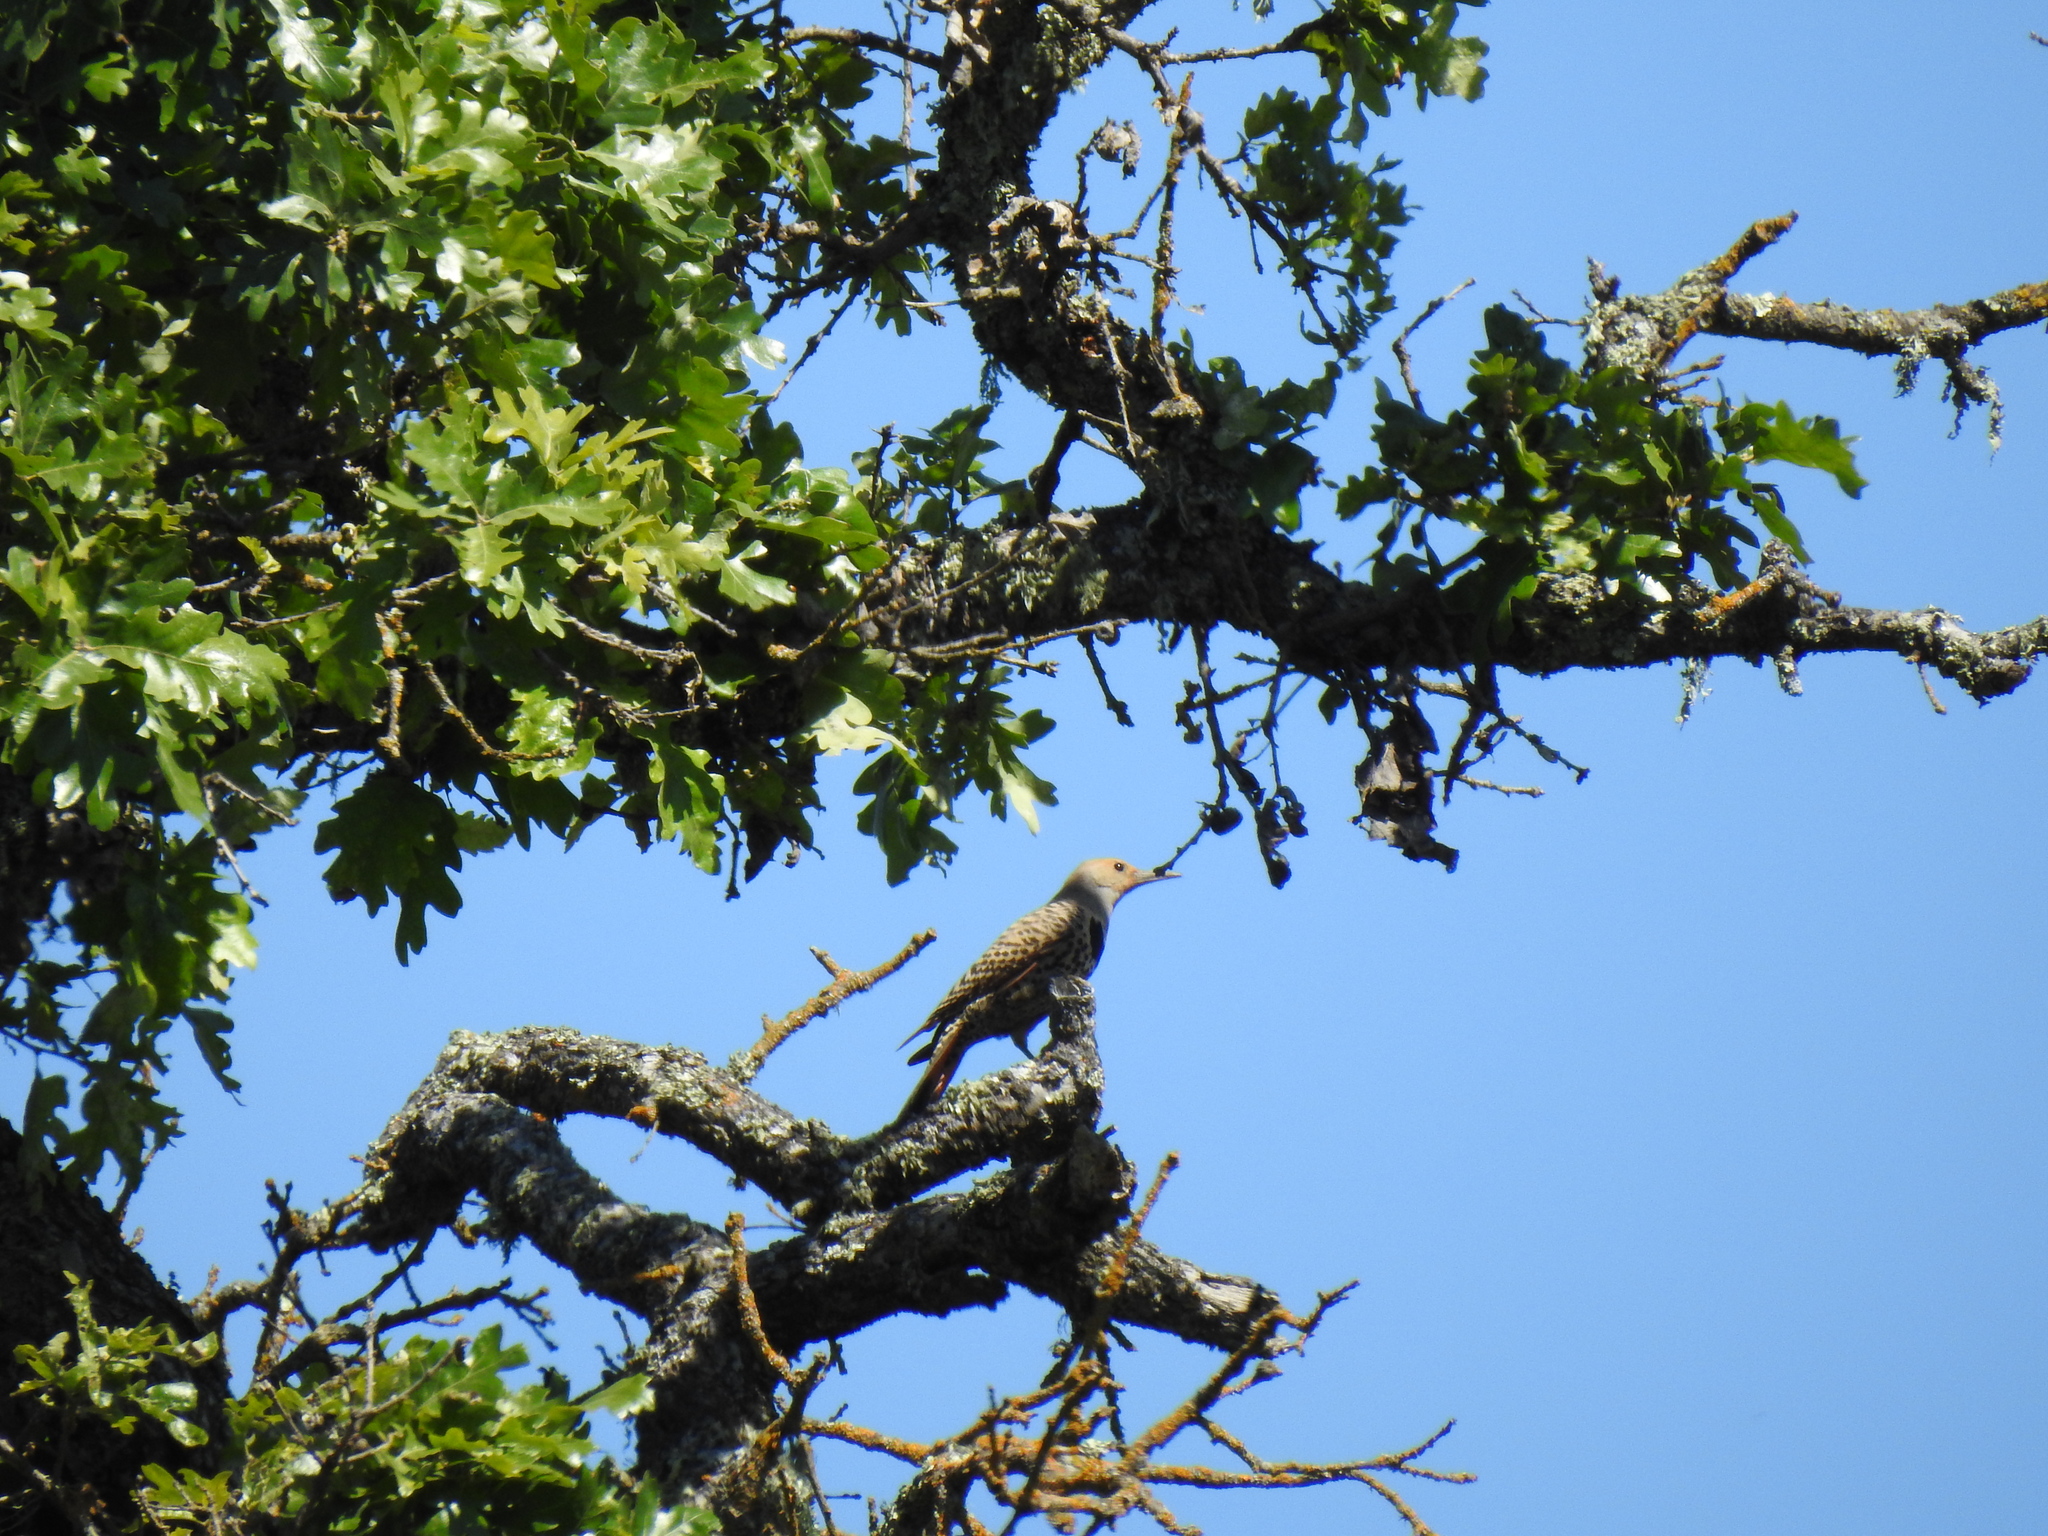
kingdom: Animalia
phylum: Chordata
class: Aves
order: Piciformes
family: Picidae
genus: Colaptes
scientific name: Colaptes auratus
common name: Northern flicker
